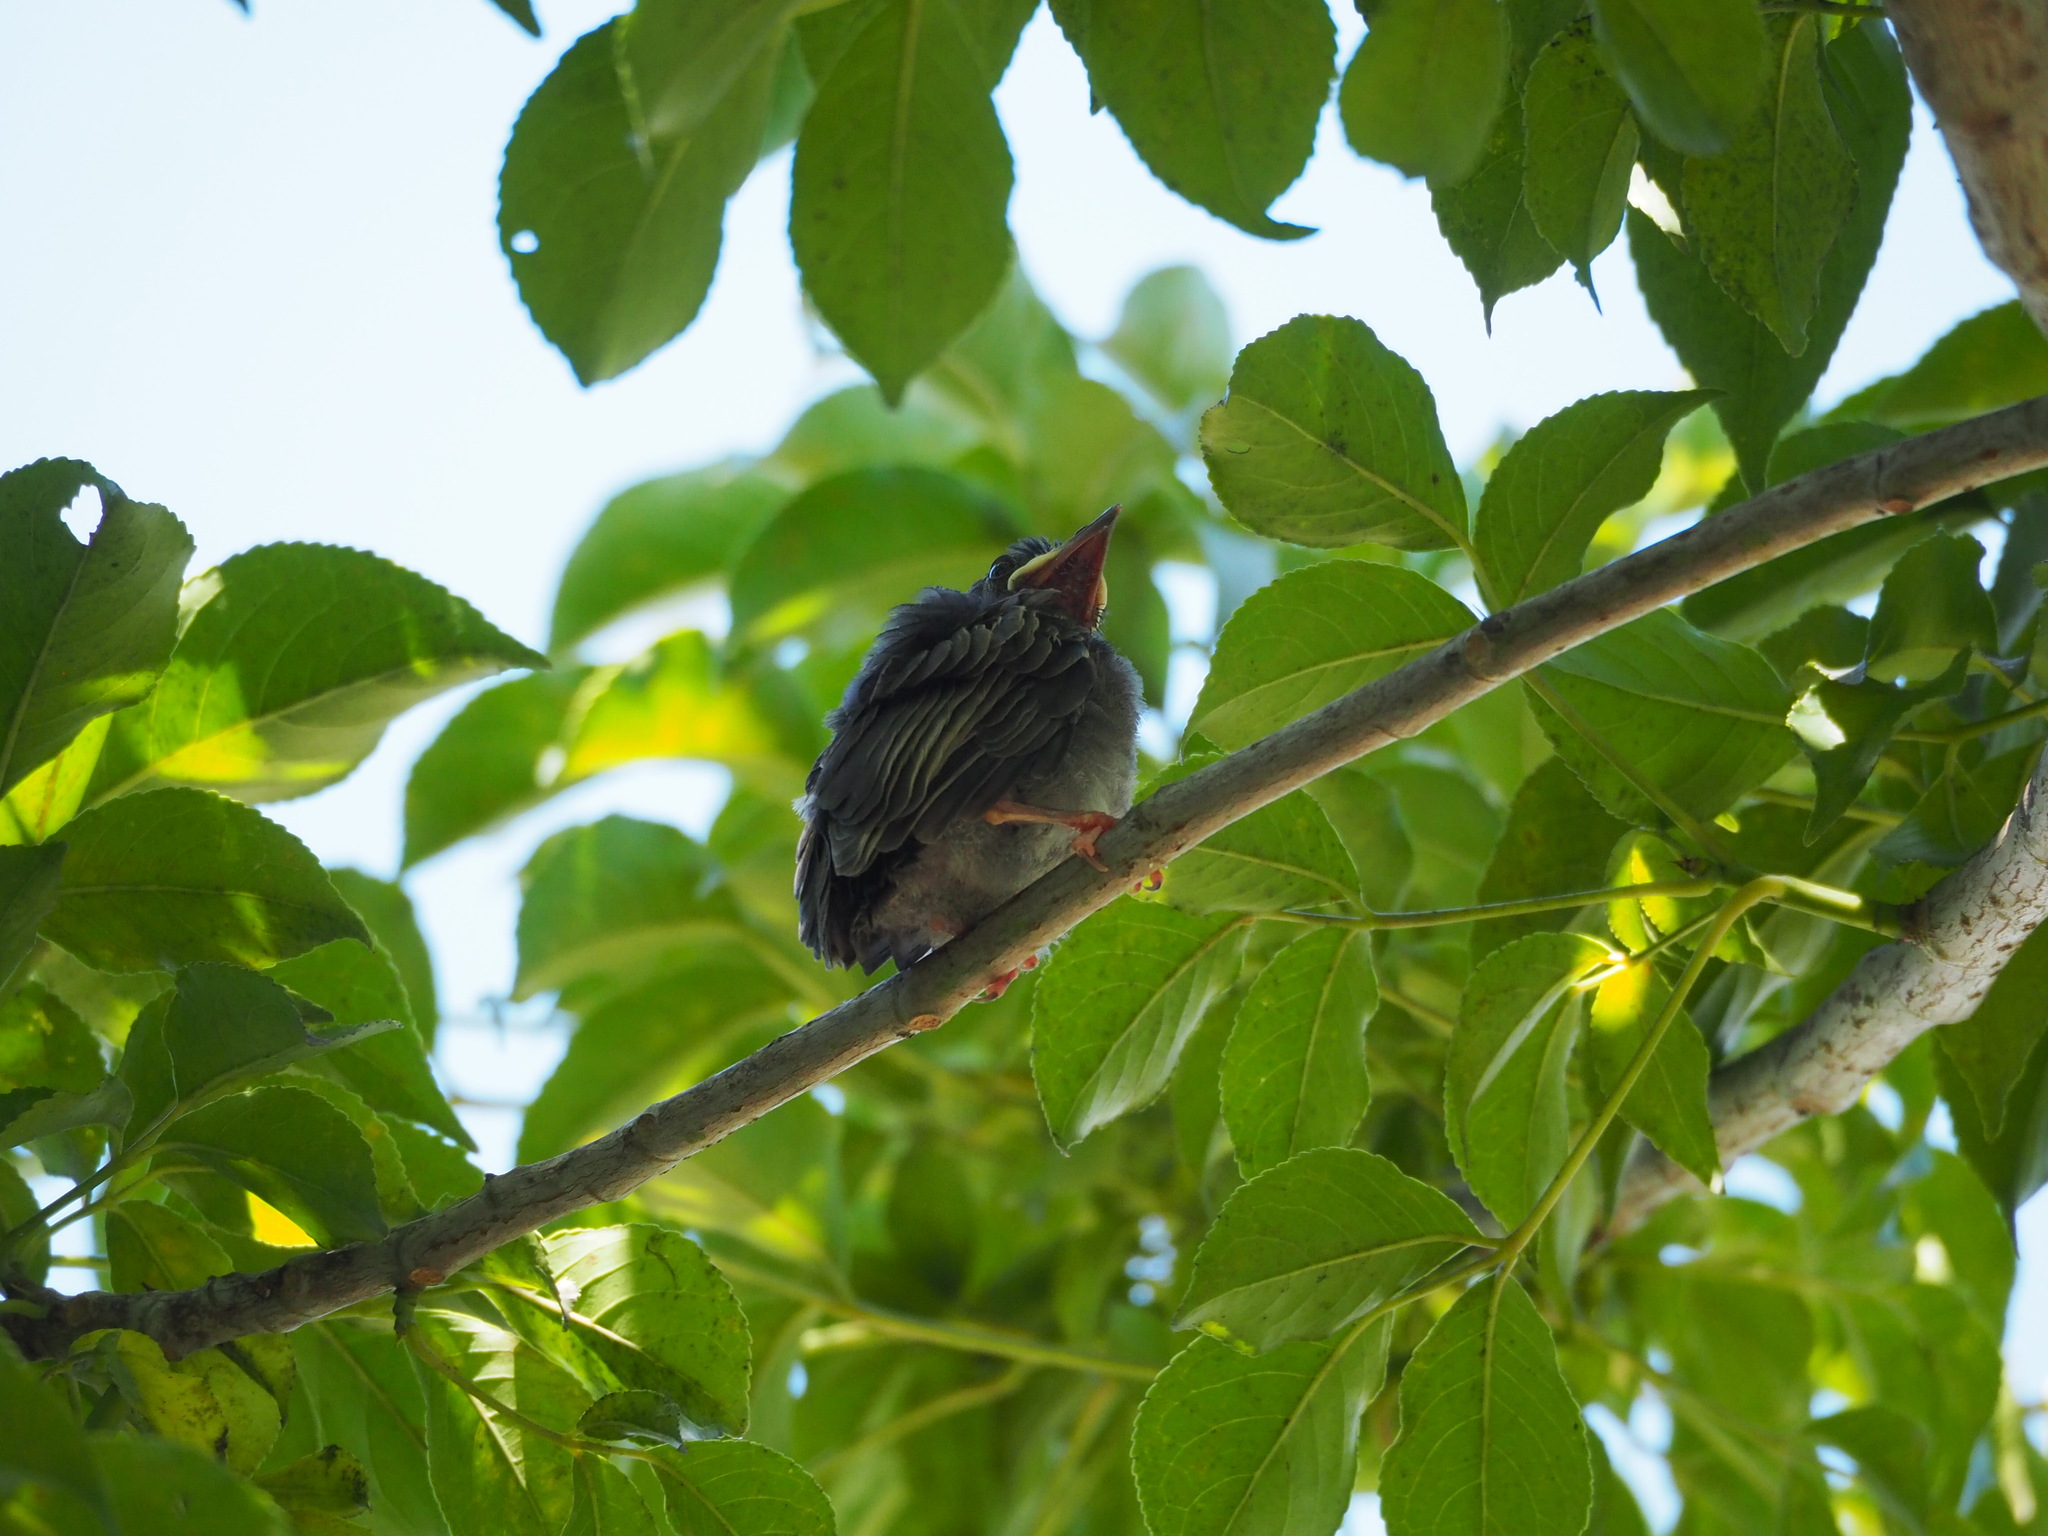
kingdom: Animalia
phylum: Chordata
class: Aves
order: Passeriformes
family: Pycnonotidae
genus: Hypsipetes
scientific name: Hypsipetes leucocephalus
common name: Black bulbul
